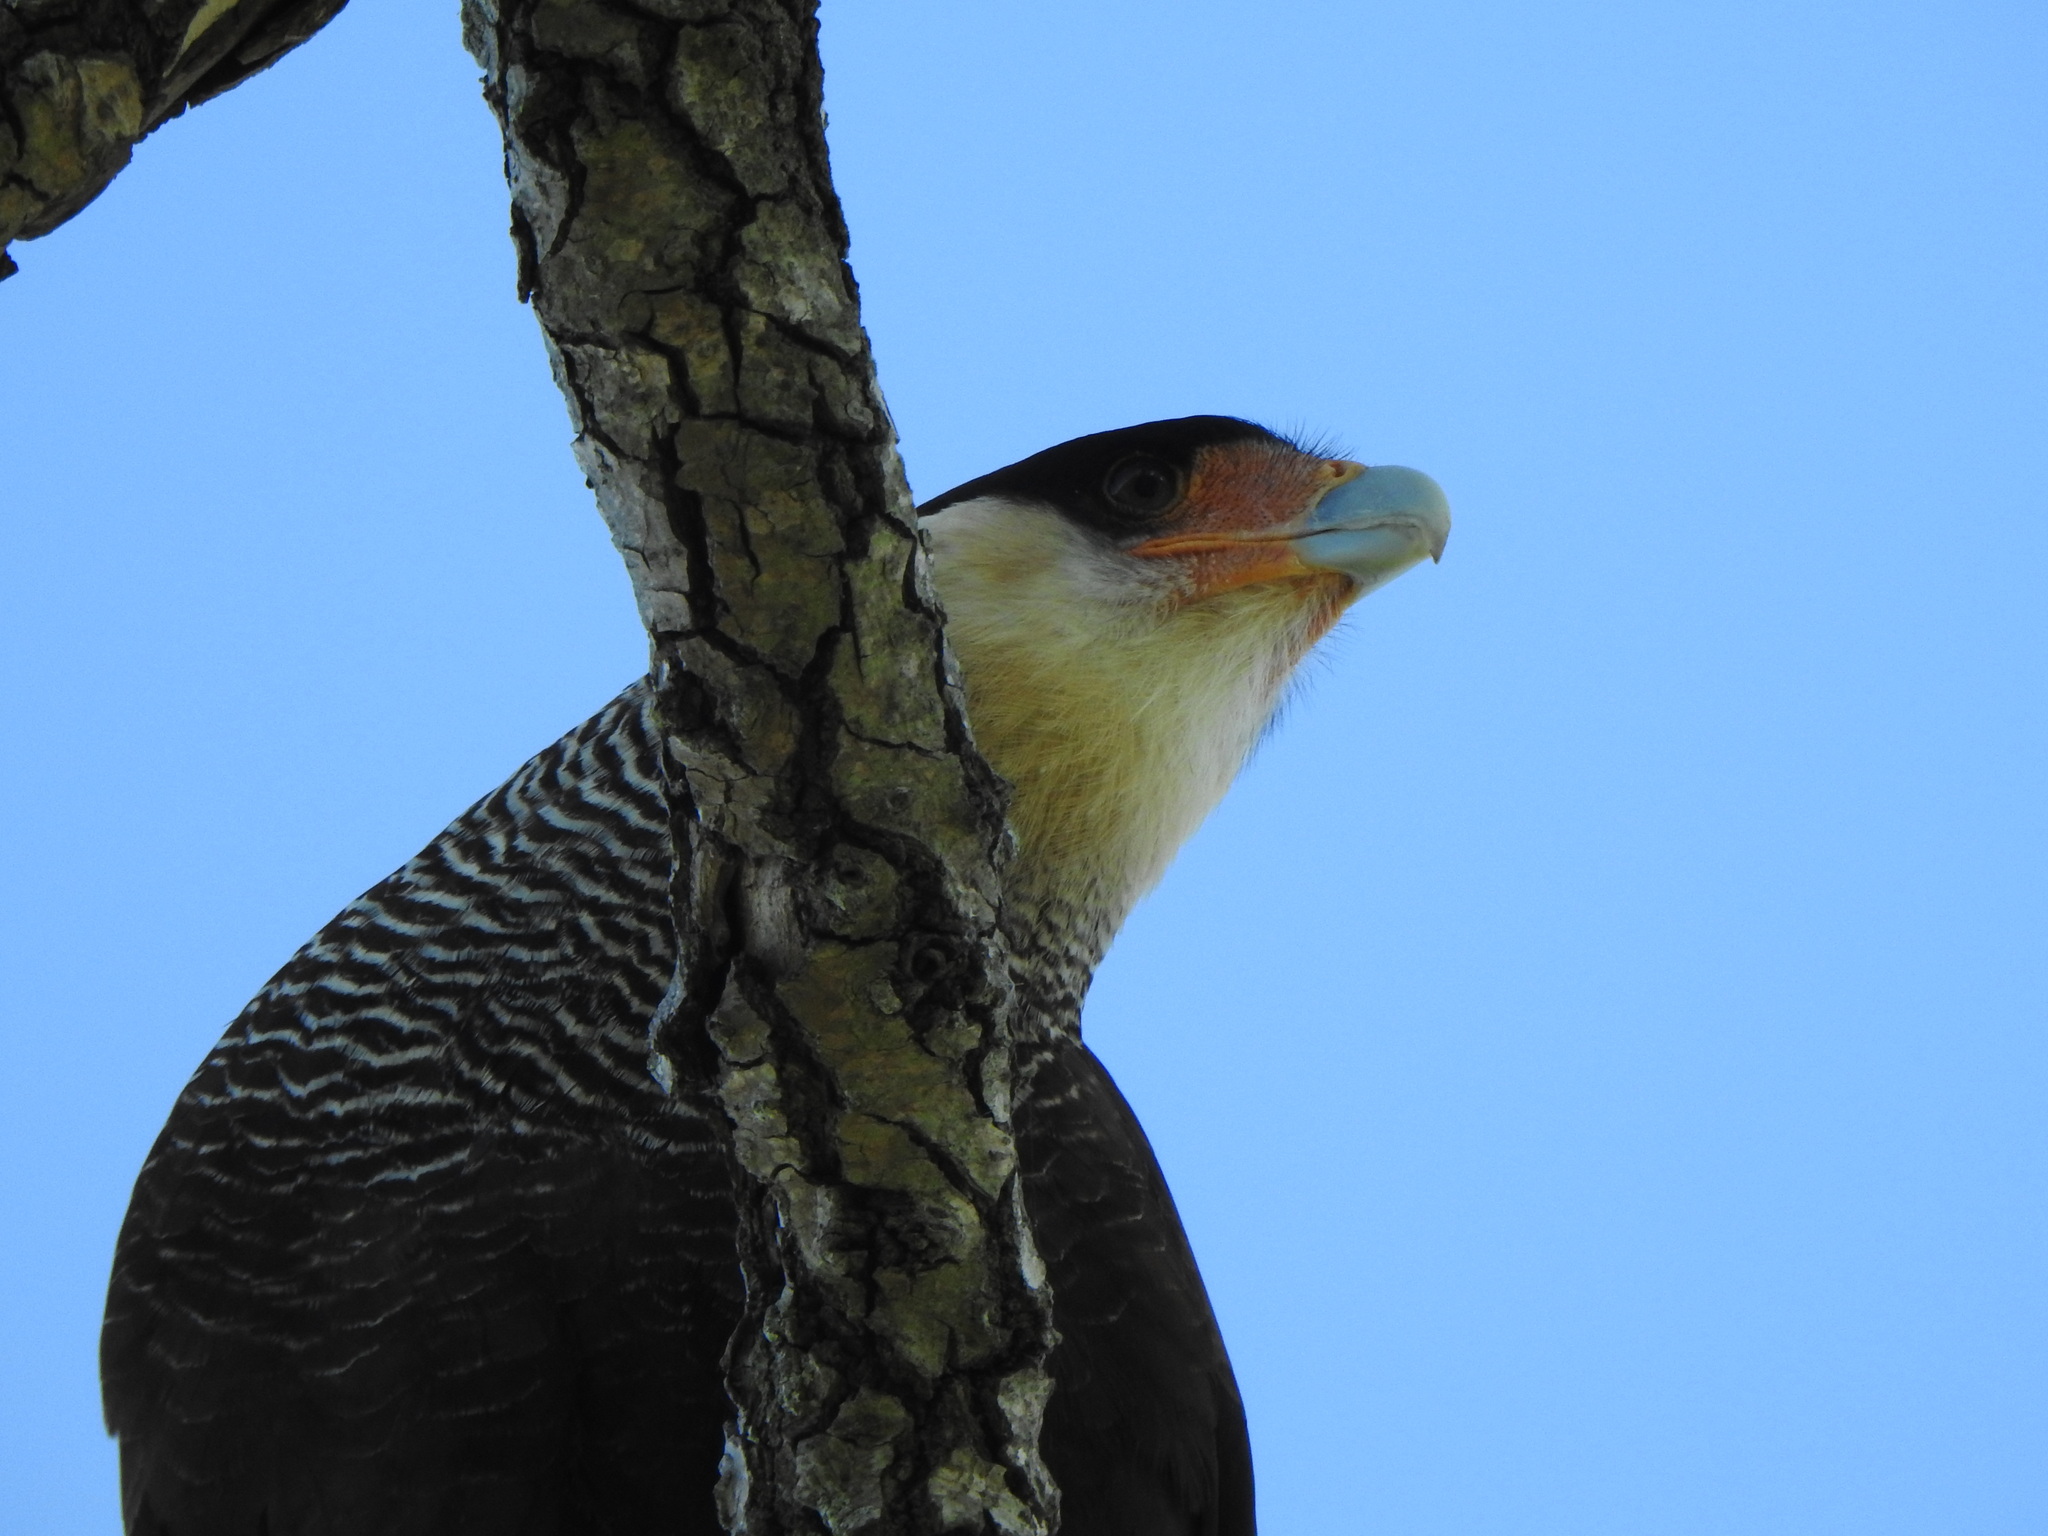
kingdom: Animalia
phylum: Chordata
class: Aves
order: Falconiformes
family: Falconidae
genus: Caracara
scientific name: Caracara plancus
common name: Southern caracara
